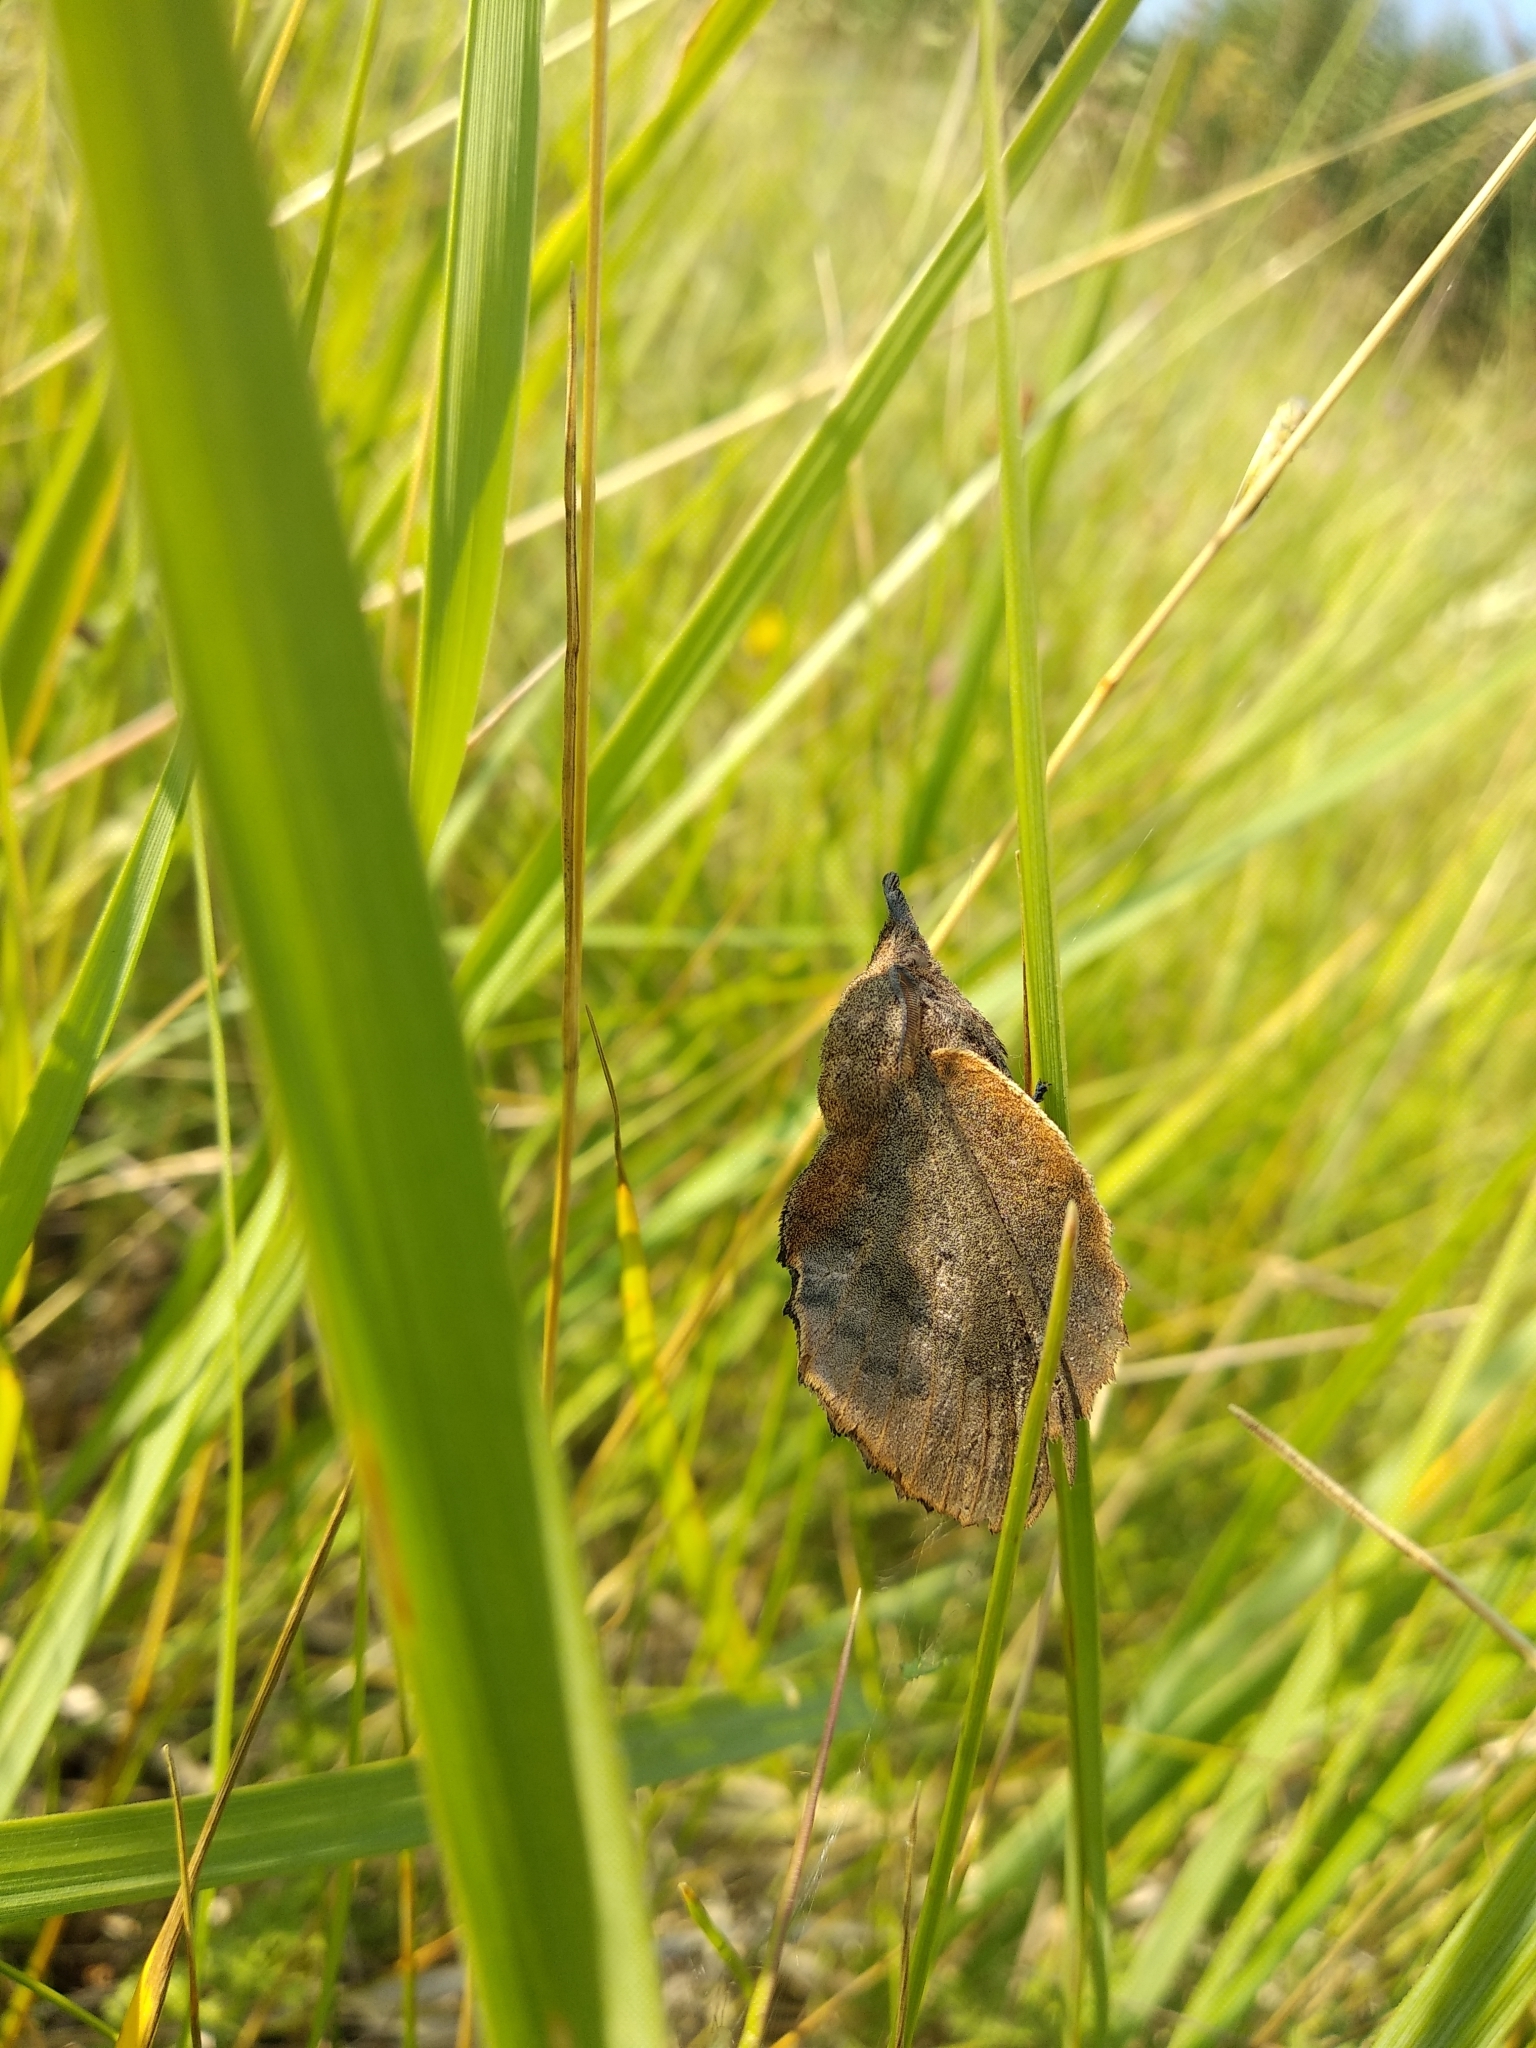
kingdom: Animalia
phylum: Arthropoda
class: Insecta
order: Lepidoptera
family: Lasiocampidae
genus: Gastropacha
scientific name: Gastropacha quercifolia
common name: Lappet
